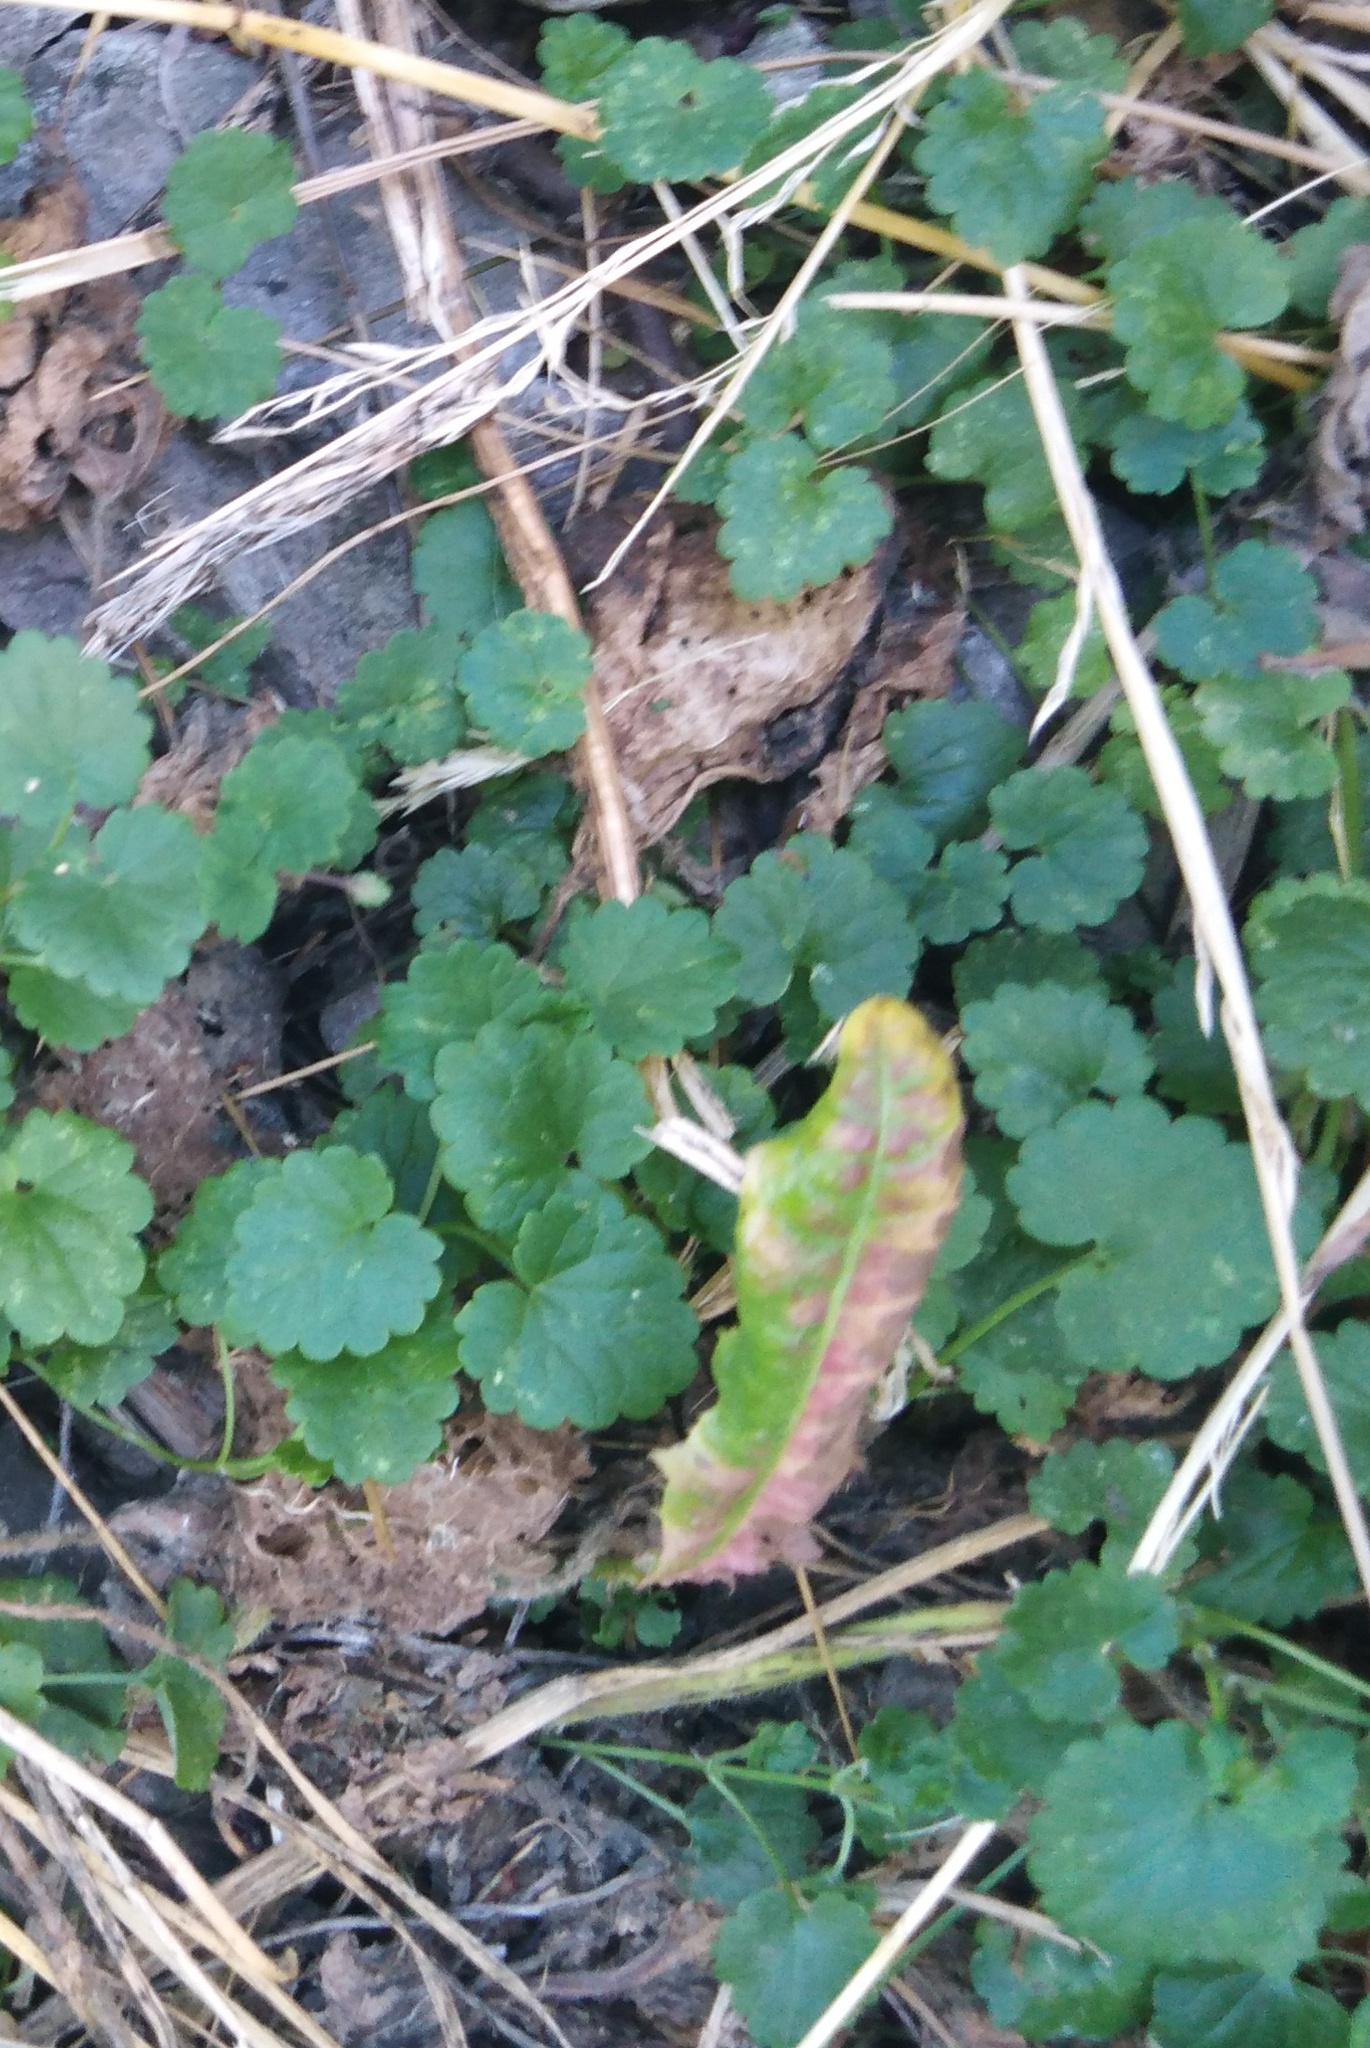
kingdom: Plantae
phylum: Tracheophyta
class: Magnoliopsida
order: Lamiales
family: Lamiaceae
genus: Glechoma
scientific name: Glechoma hederacea
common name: Ground ivy
